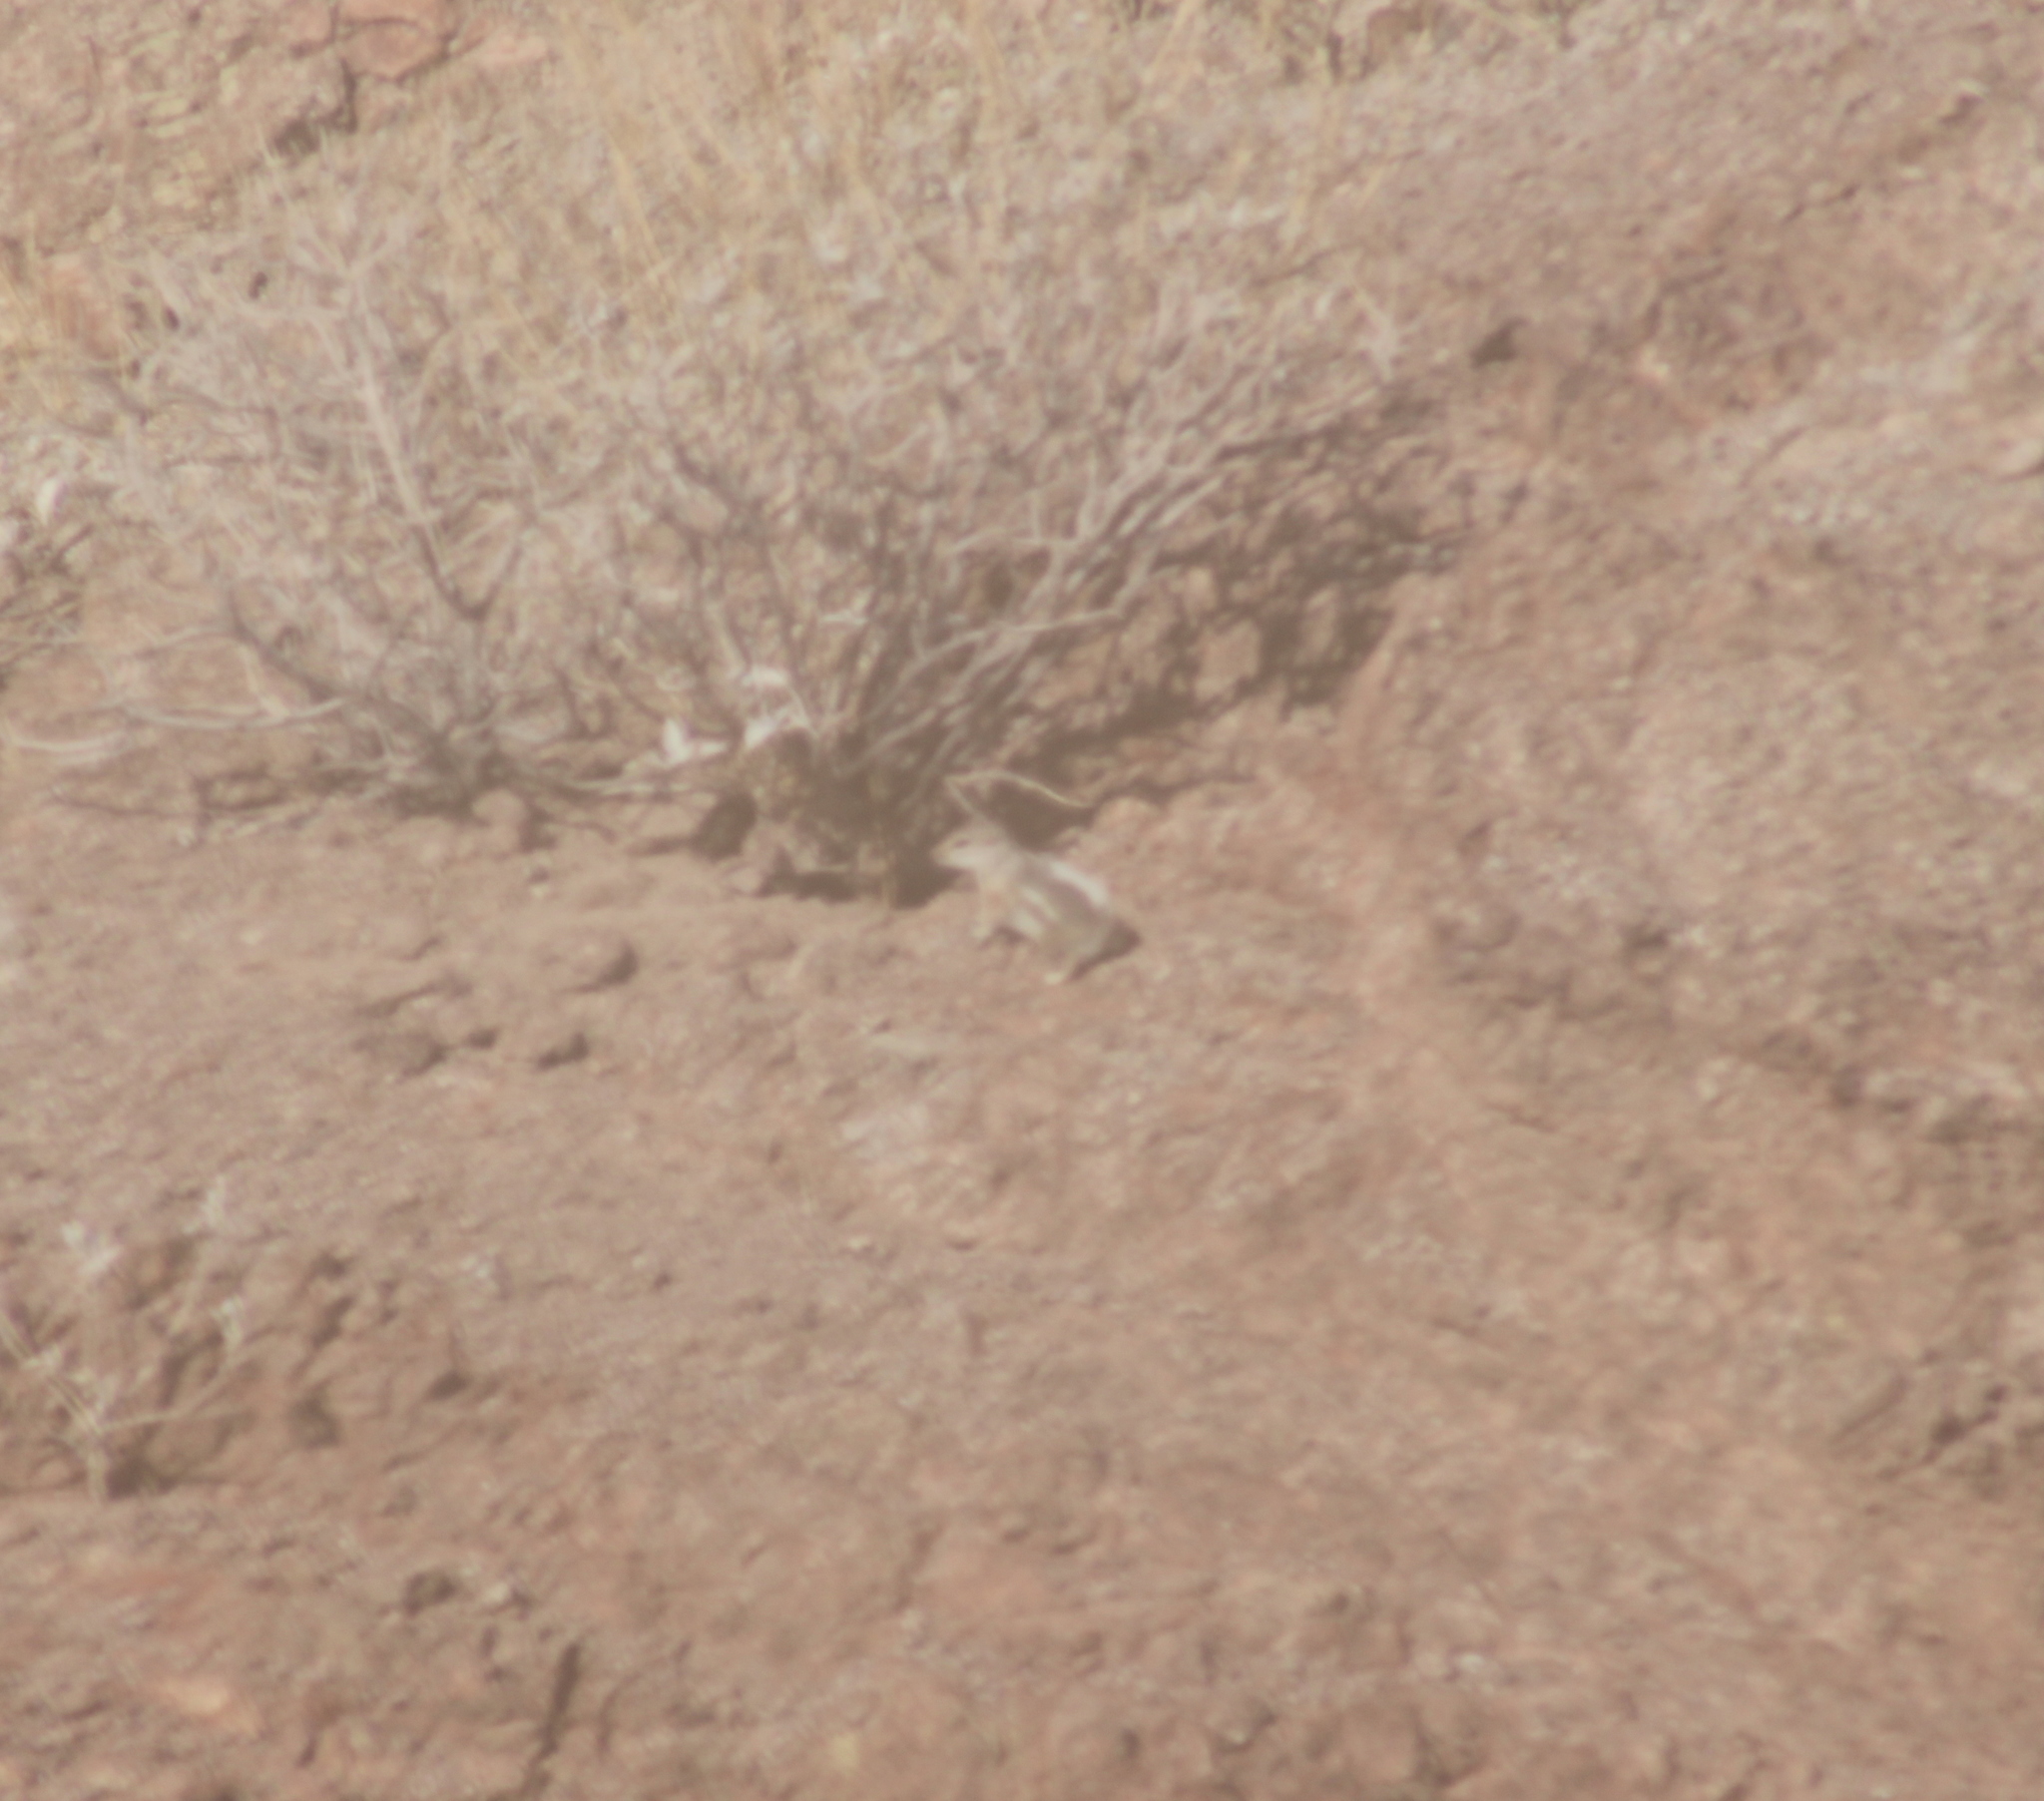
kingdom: Animalia
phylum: Chordata
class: Mammalia
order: Rodentia
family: Sciuridae
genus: Ammospermophilus
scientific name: Ammospermophilus leucurus
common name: White-tailed antelope squirrel
